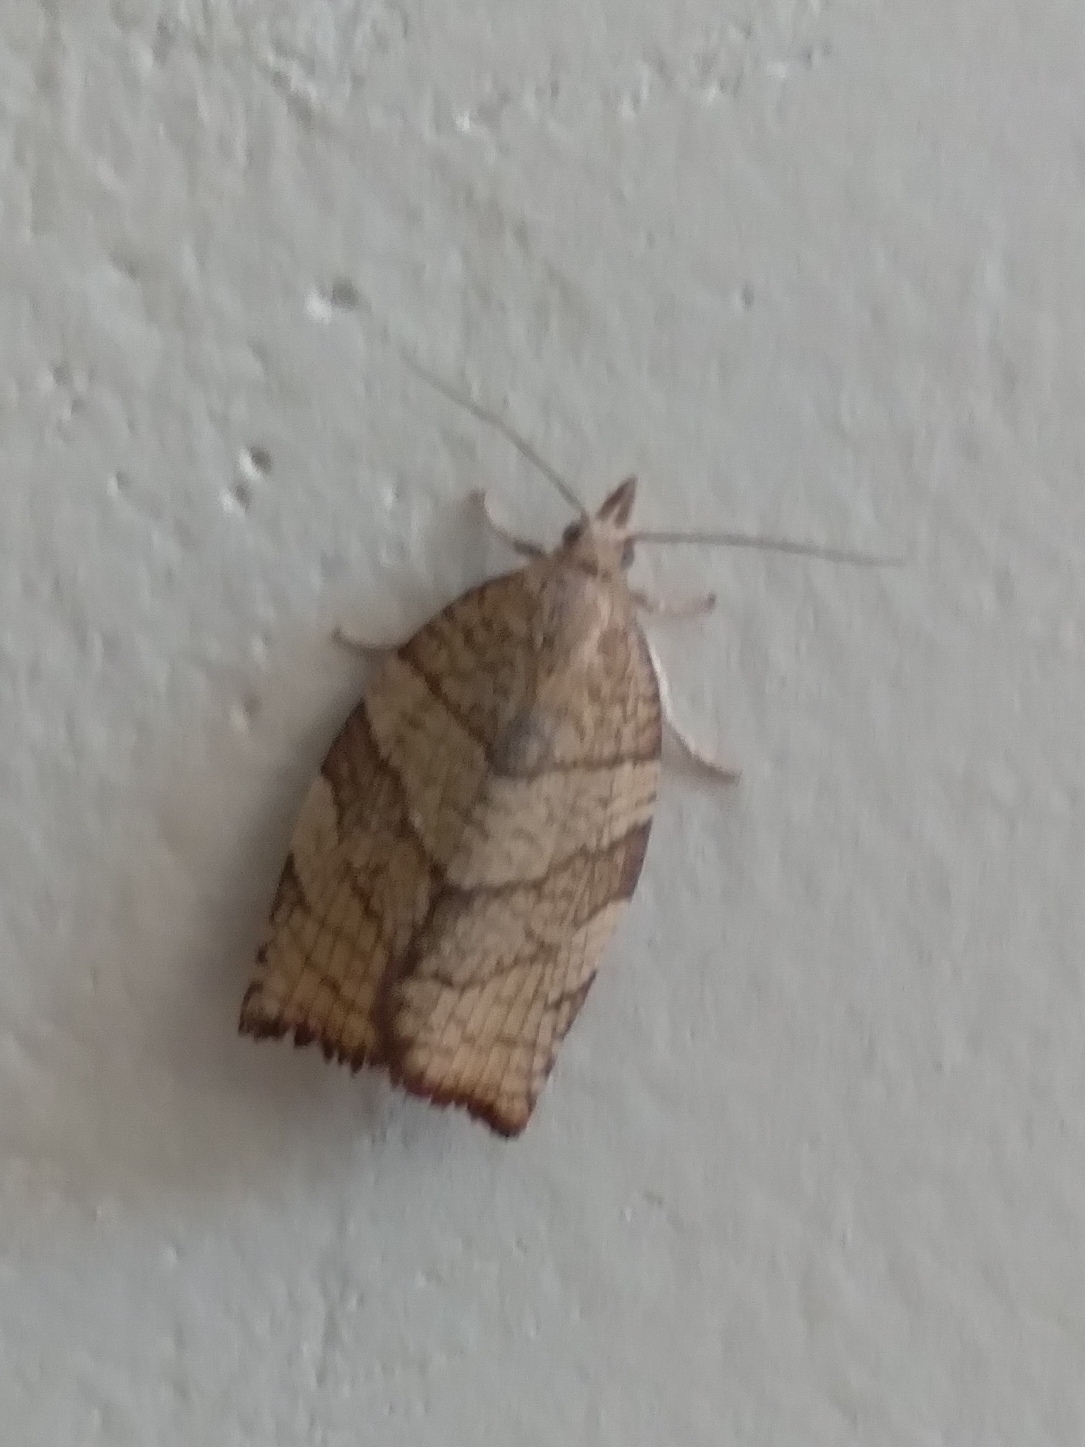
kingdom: Animalia
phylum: Arthropoda
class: Insecta
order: Lepidoptera
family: Tortricidae
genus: Pandemis
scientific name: Pandemis corylana
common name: Chequered fruit-tree tortrix
